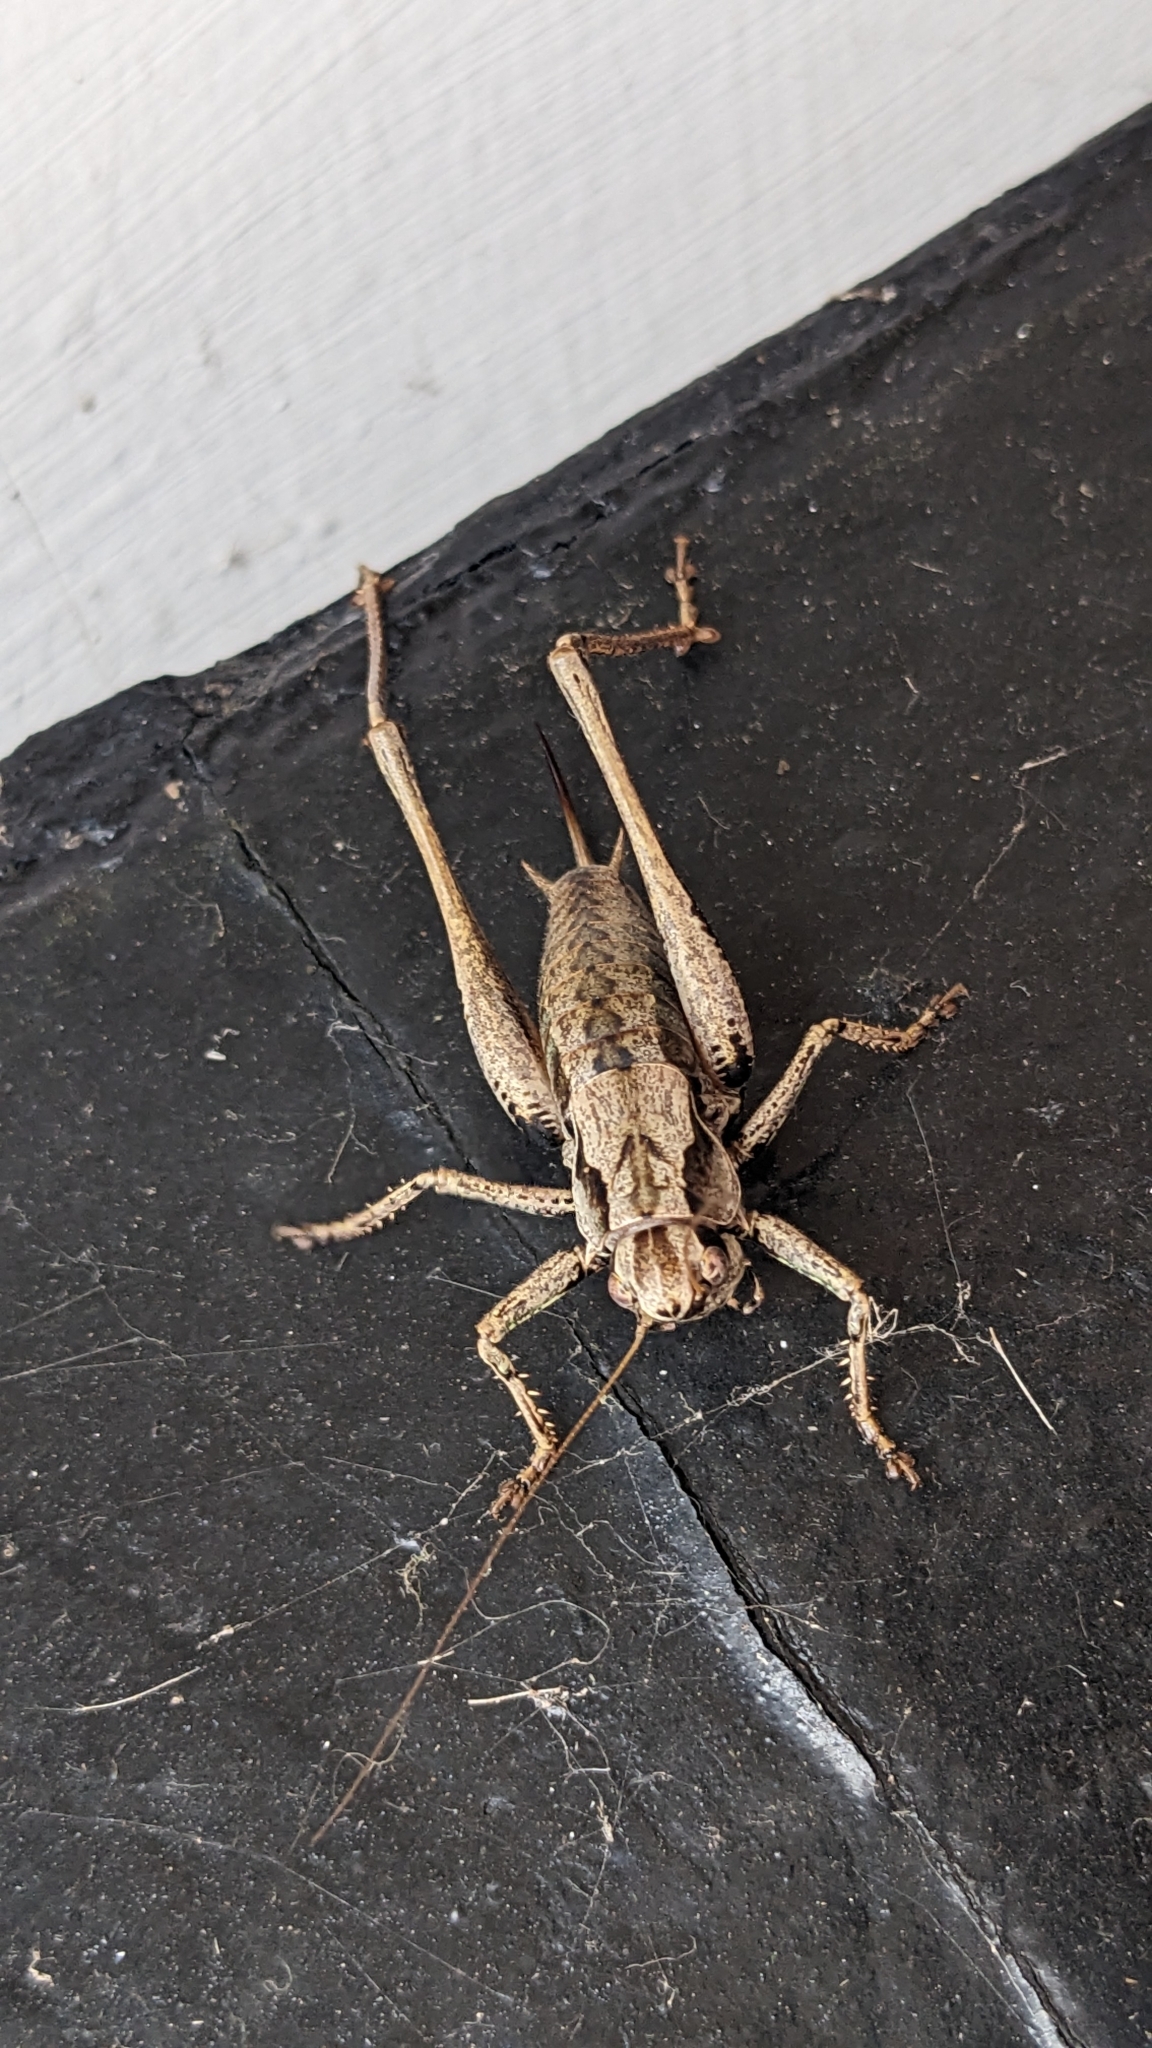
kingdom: Animalia
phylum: Arthropoda
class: Insecta
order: Orthoptera
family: Tettigoniidae
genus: Pholidoptera
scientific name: Pholidoptera griseoaptera
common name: Dark bush-cricket
